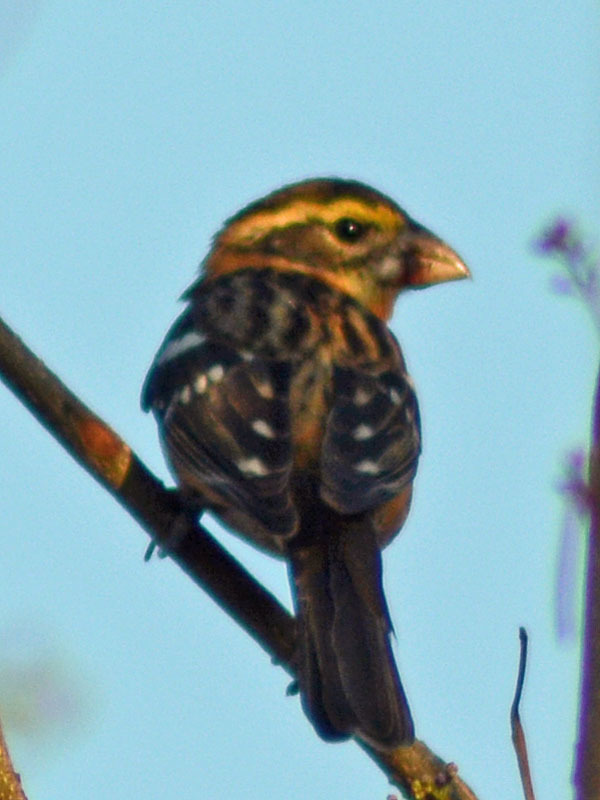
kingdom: Animalia
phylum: Chordata
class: Aves
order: Passeriformes
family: Cardinalidae
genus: Pheucticus
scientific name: Pheucticus melanocephalus
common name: Black-headed grosbeak
